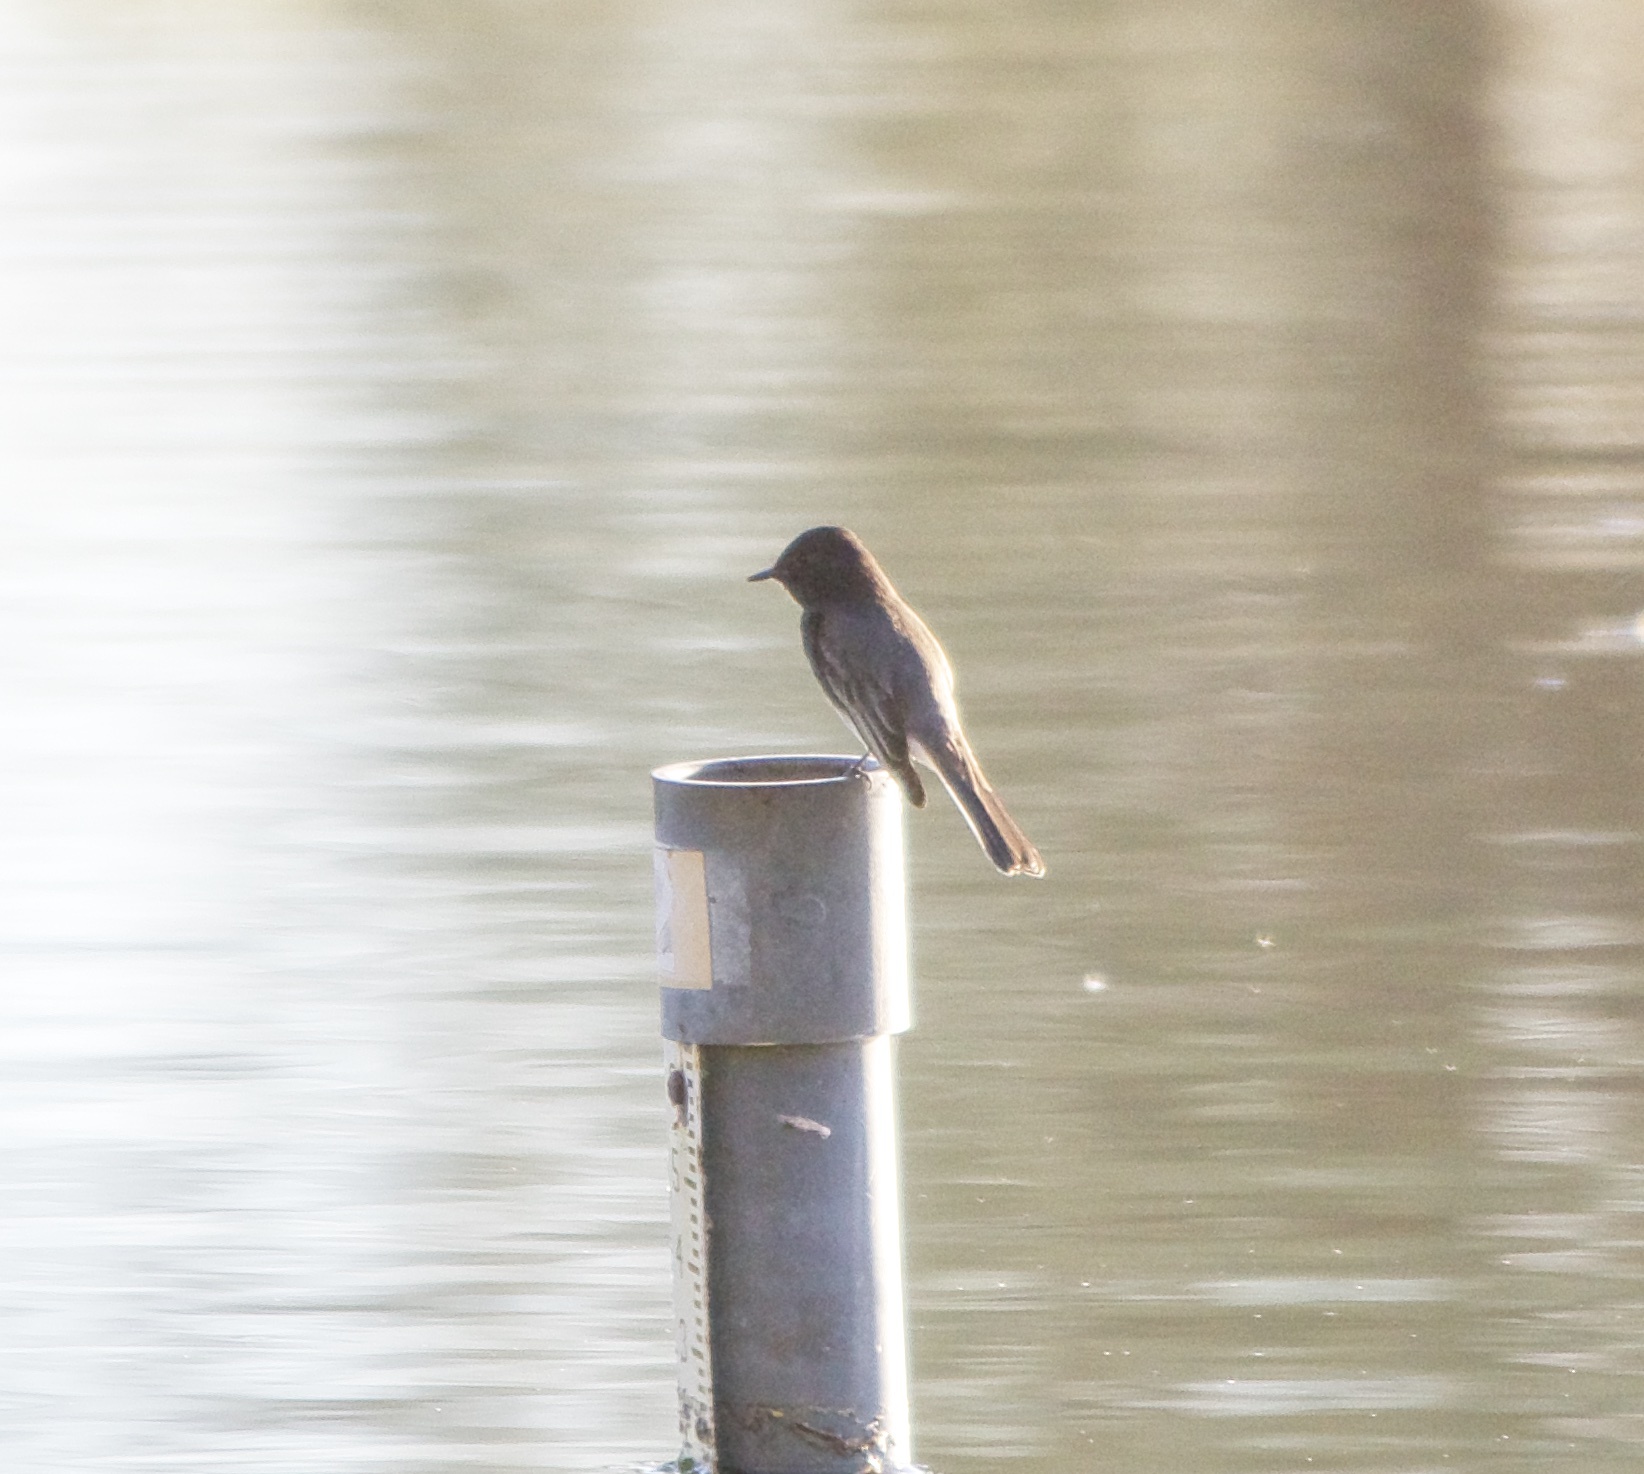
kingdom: Animalia
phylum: Chordata
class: Aves
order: Passeriformes
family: Tyrannidae
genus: Sayornis
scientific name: Sayornis nigricans
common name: Black phoebe
